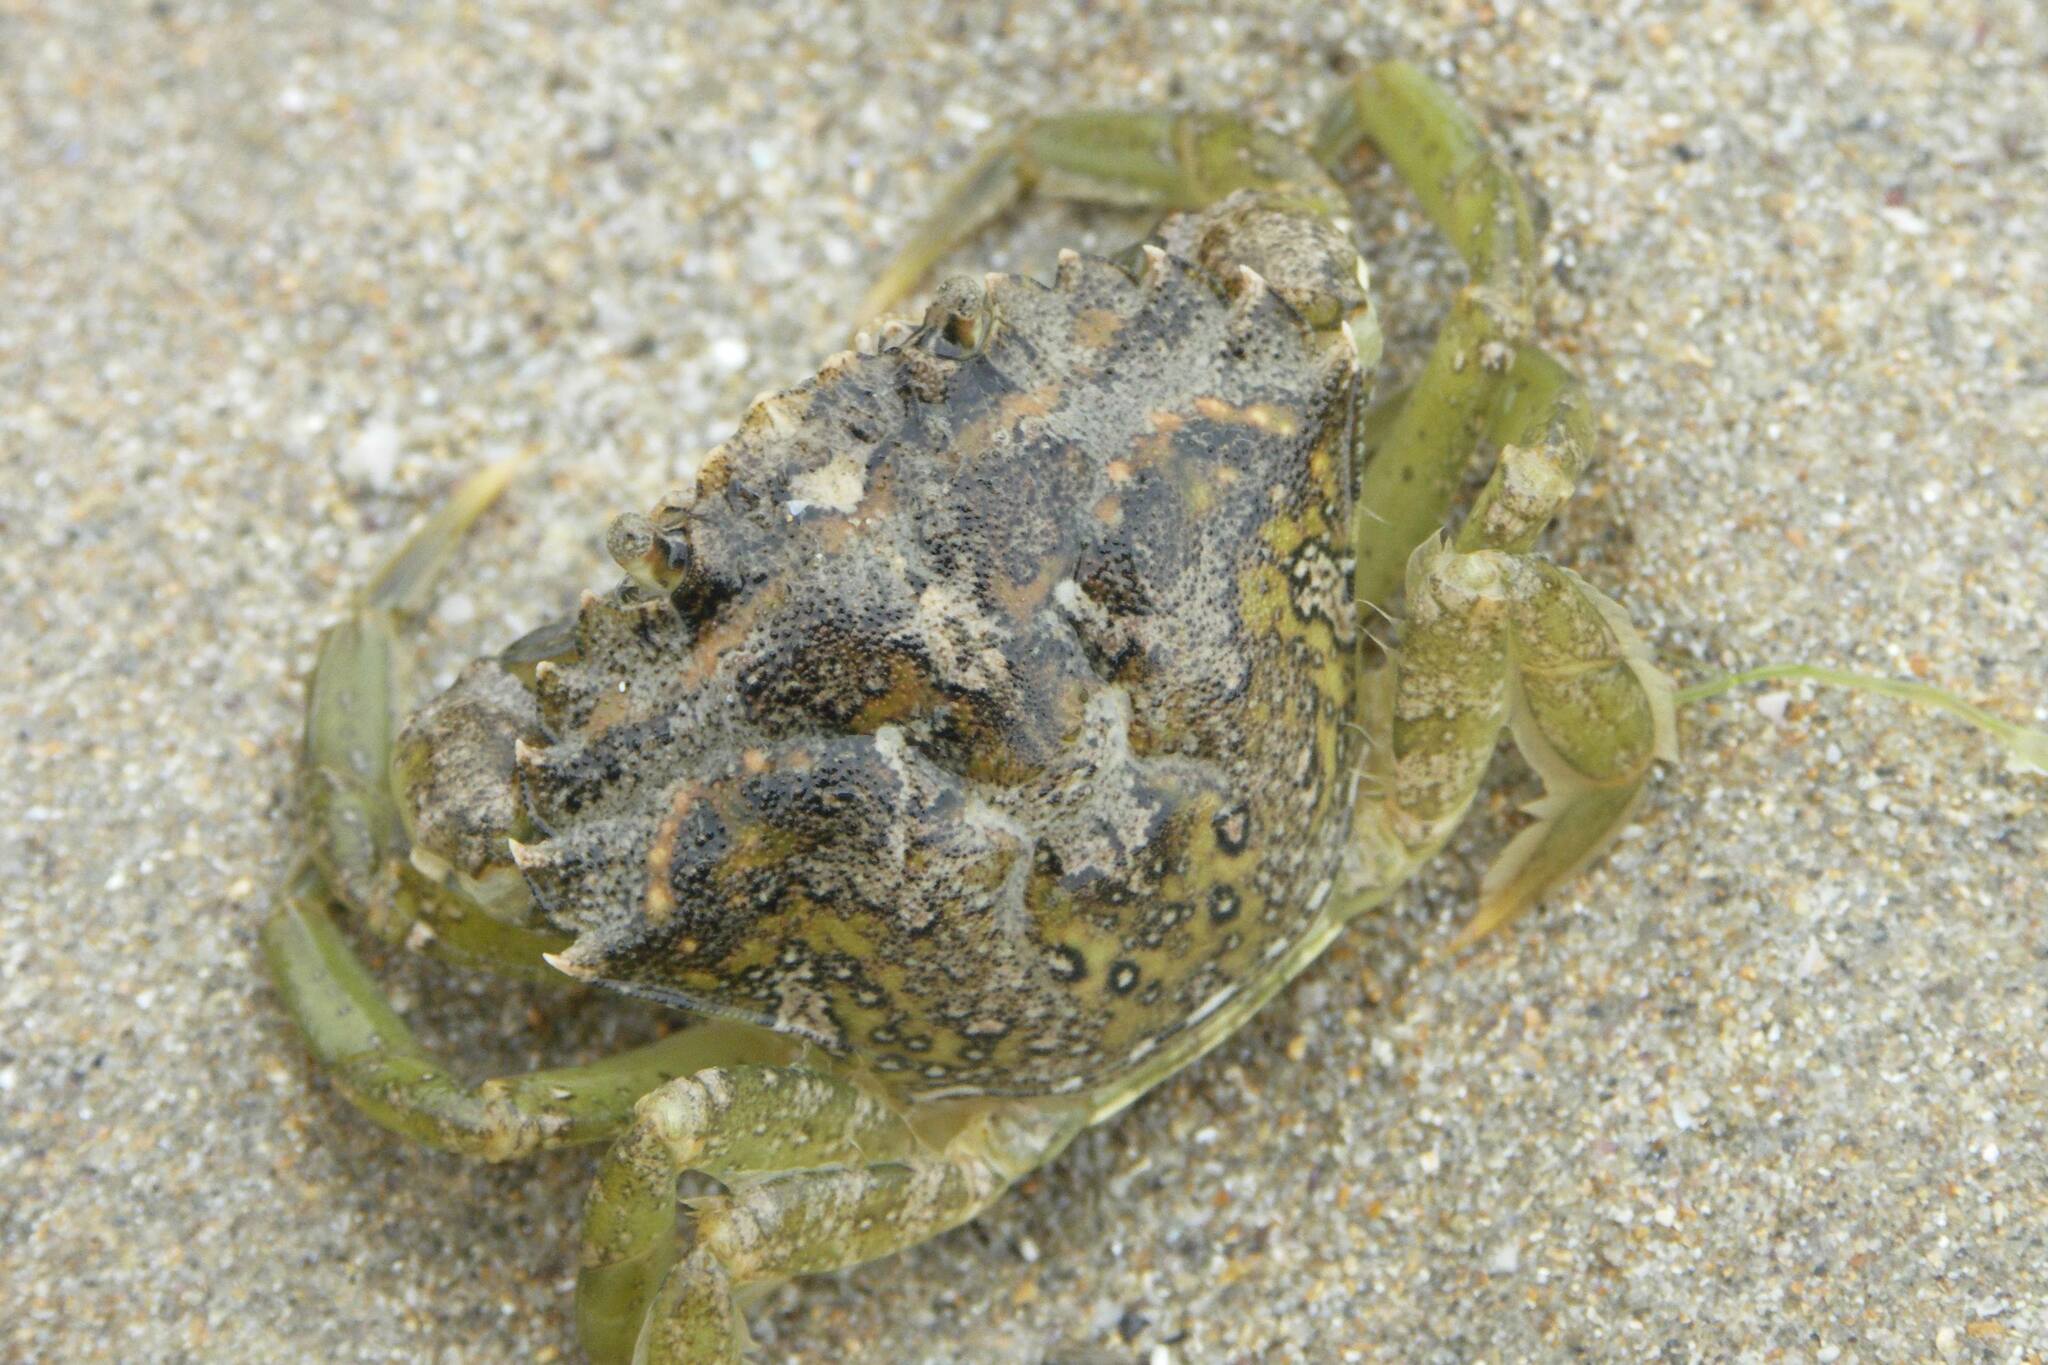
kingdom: Animalia
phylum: Arthropoda
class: Malacostraca
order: Decapoda
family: Carcinidae
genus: Carcinus
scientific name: Carcinus maenas
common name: European green crab
